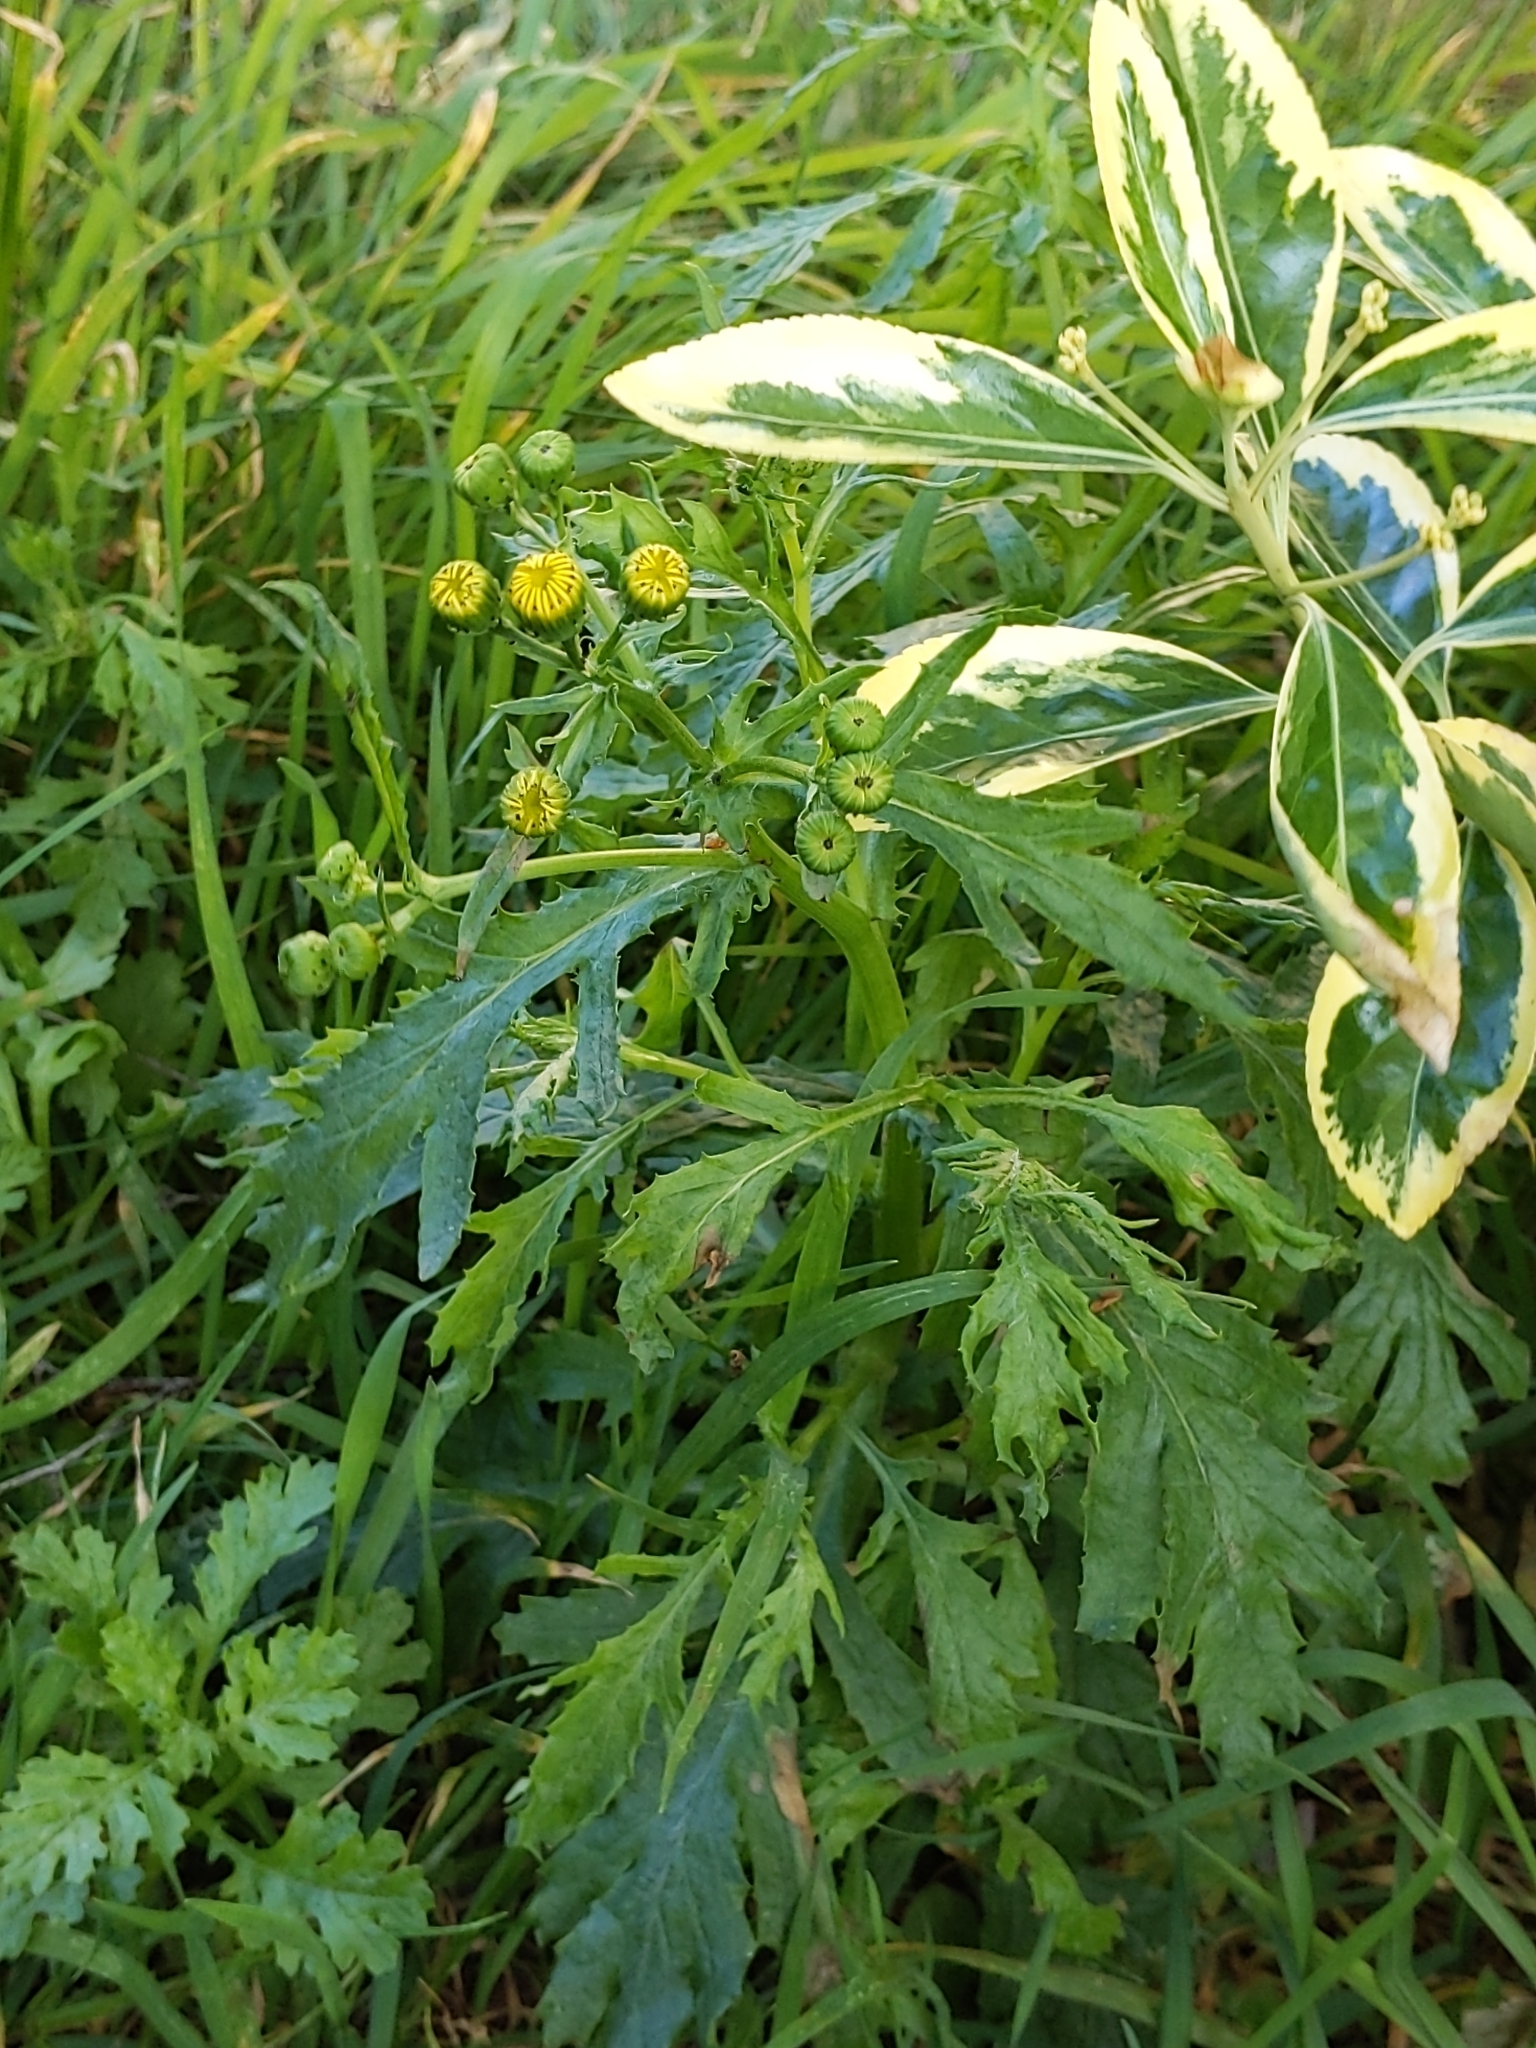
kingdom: Plantae
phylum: Tracheophyta
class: Magnoliopsida
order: Asterales
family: Asteraceae
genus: Senecio
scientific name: Senecio squalidus
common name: Oxford ragwort
